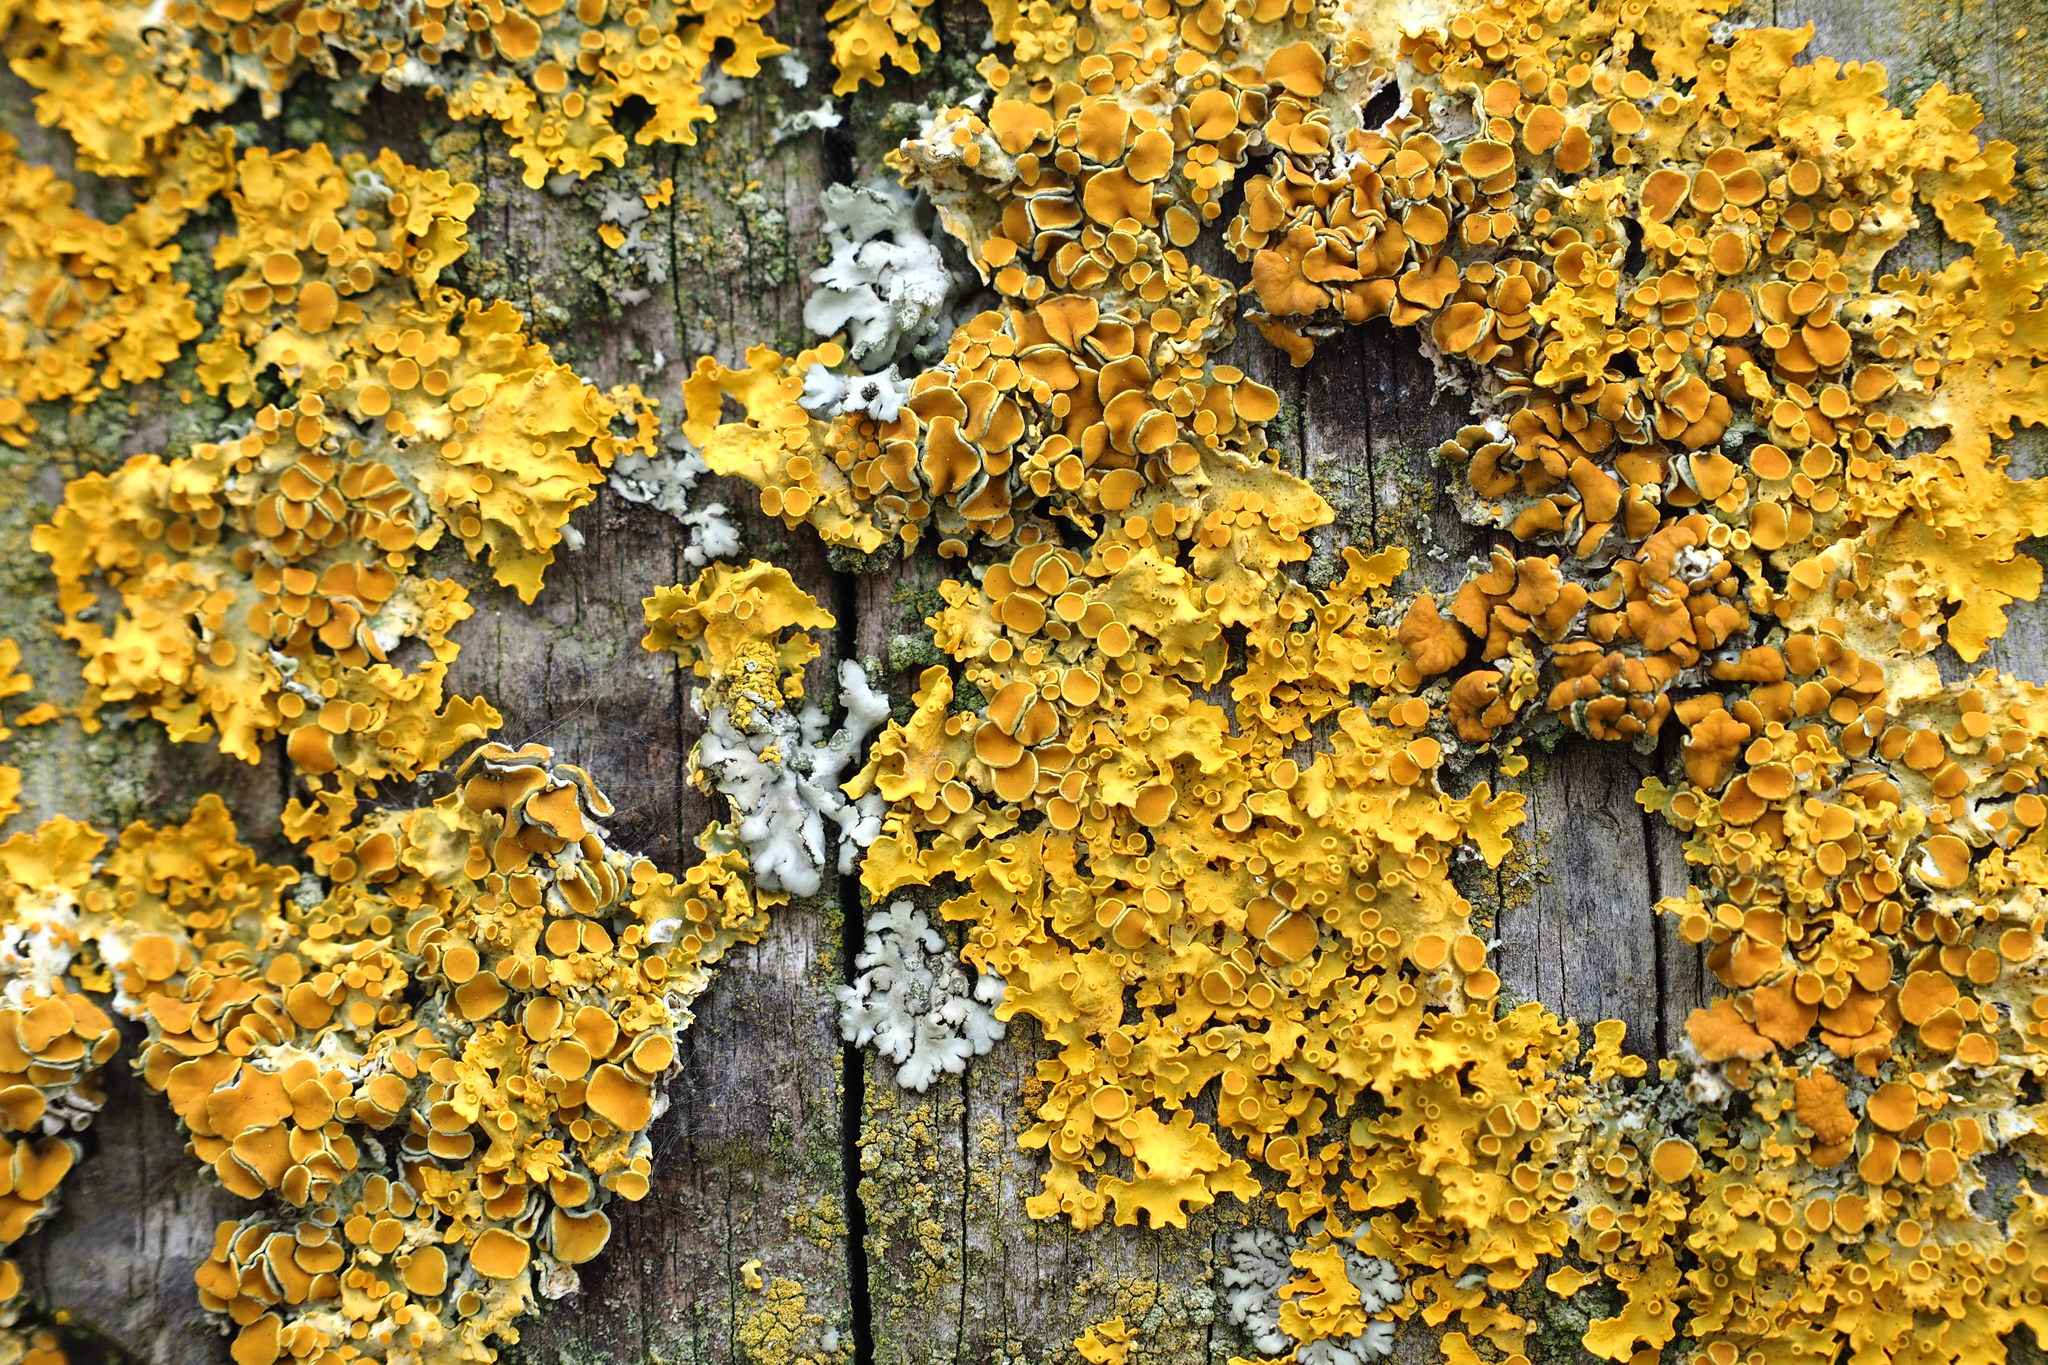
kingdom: Fungi
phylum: Ascomycota
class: Lecanoromycetes
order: Teloschistales
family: Teloschistaceae
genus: Xanthoria
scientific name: Xanthoria parietina
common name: Common orange lichen
